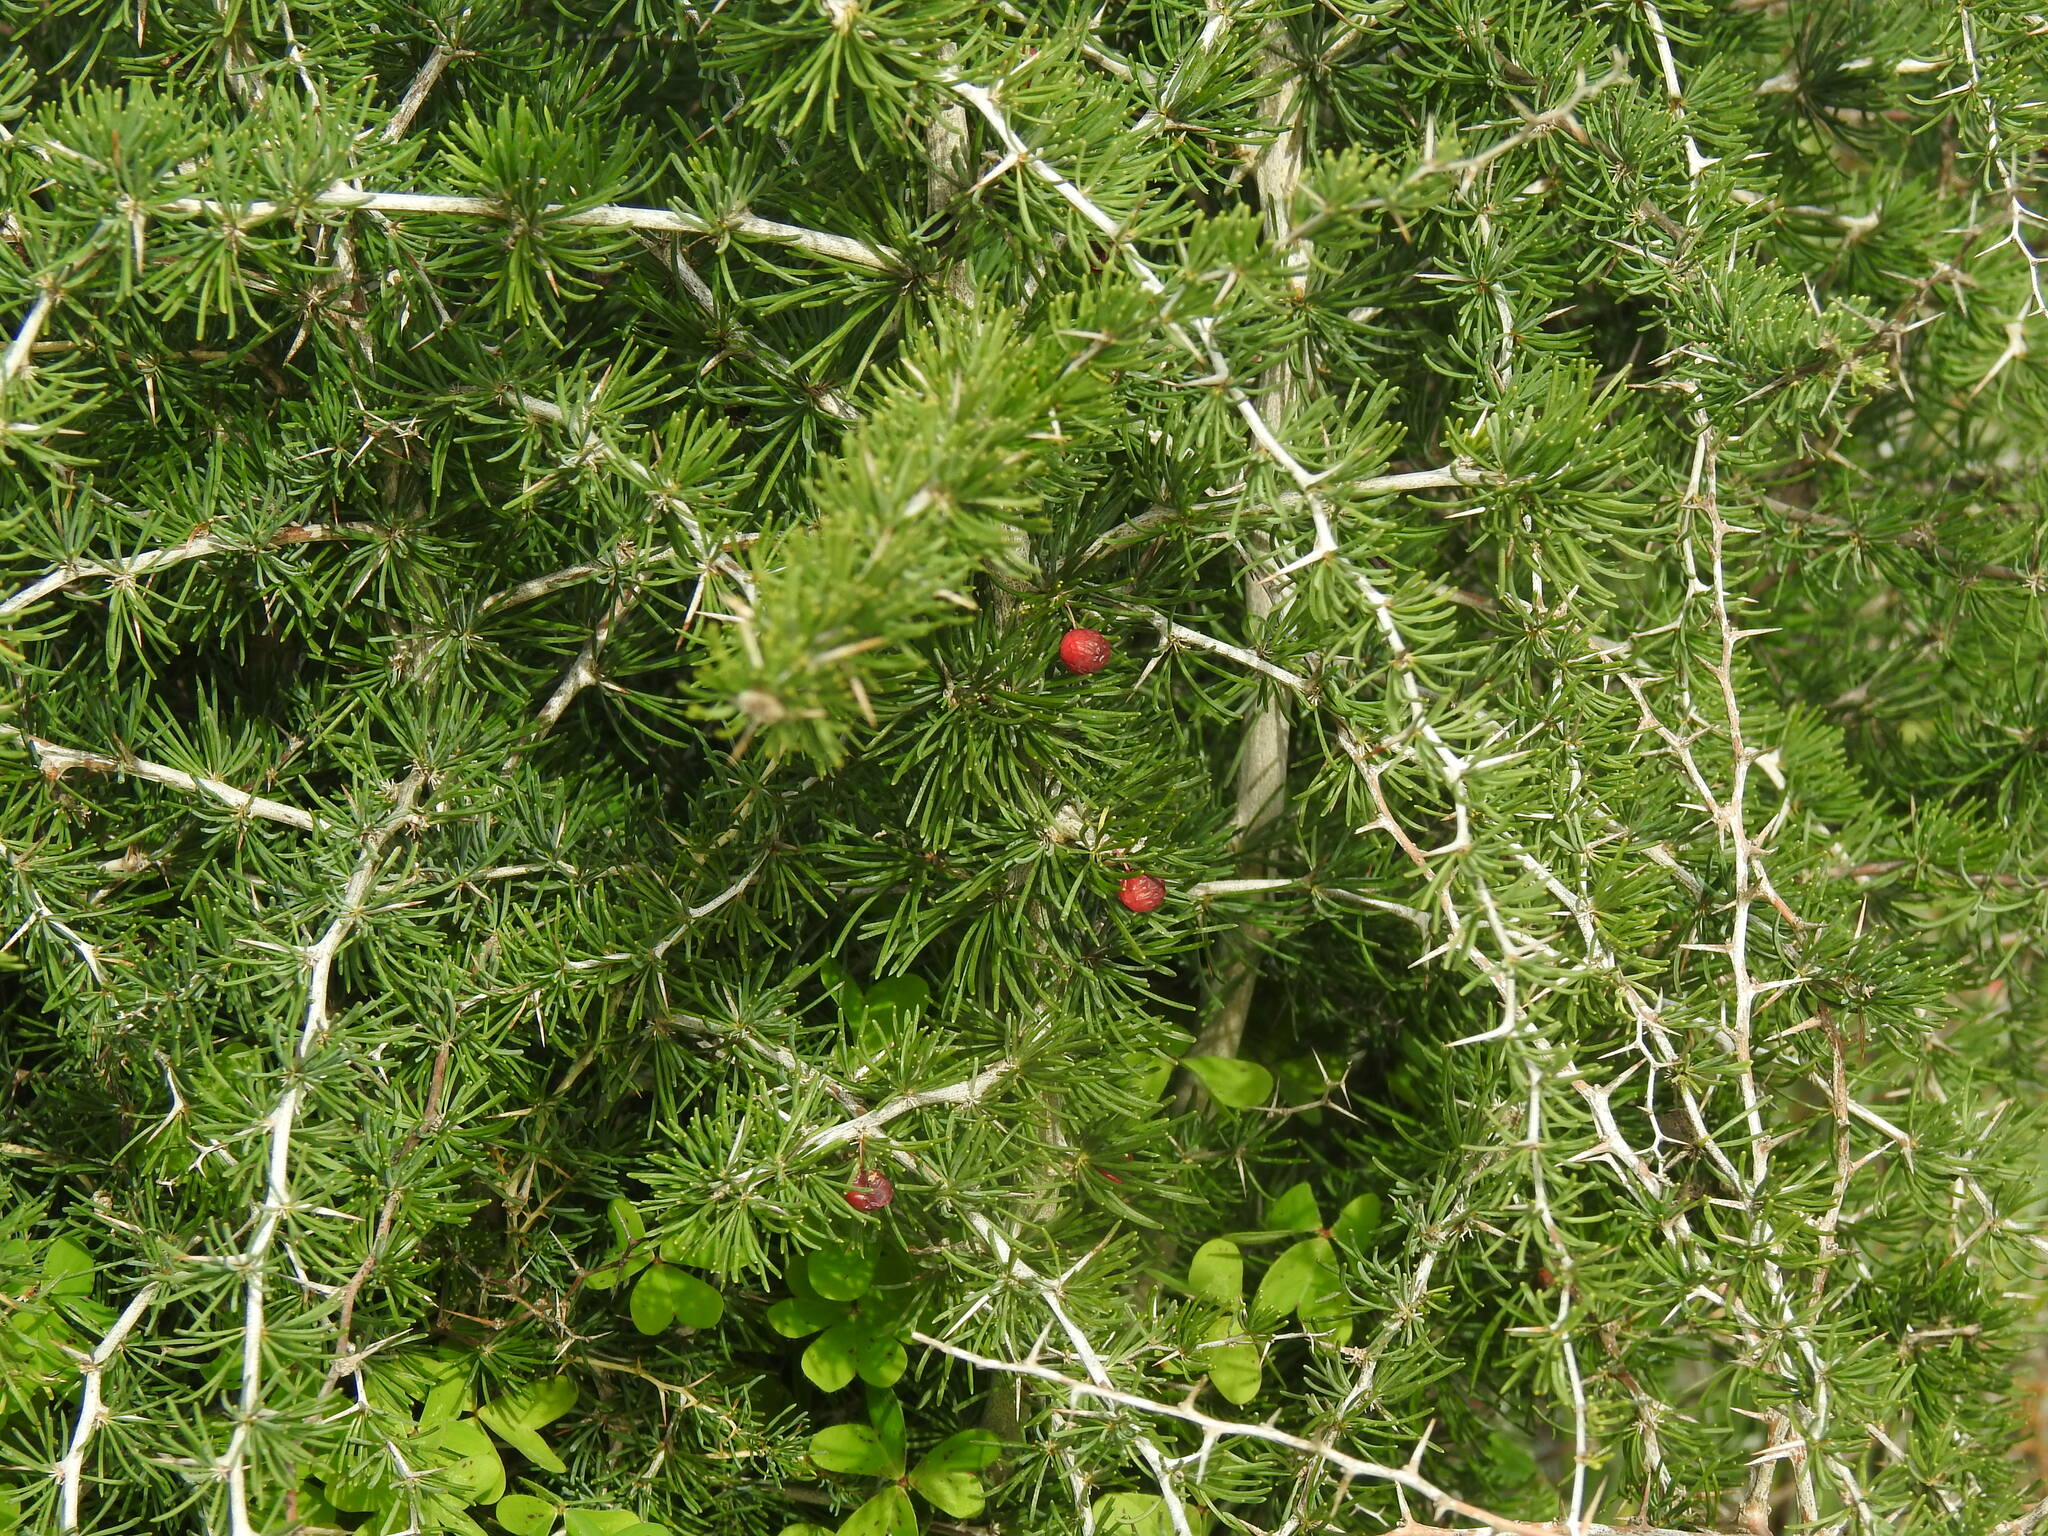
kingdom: Plantae
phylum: Tracheophyta
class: Liliopsida
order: Asparagales
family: Asparagaceae
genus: Asparagus
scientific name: Asparagus albus
